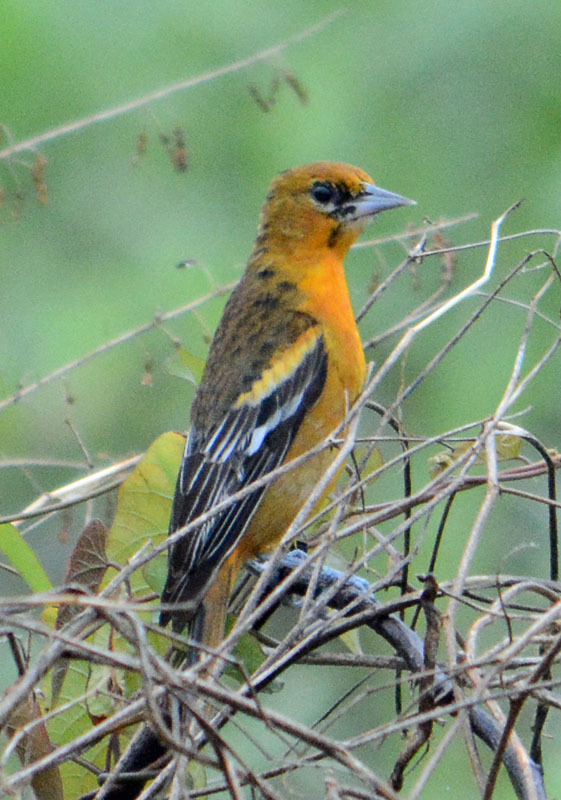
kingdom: Animalia
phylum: Chordata
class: Aves
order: Passeriformes
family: Icteridae
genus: Icterus
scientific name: Icterus gularis
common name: Altamira oriole
